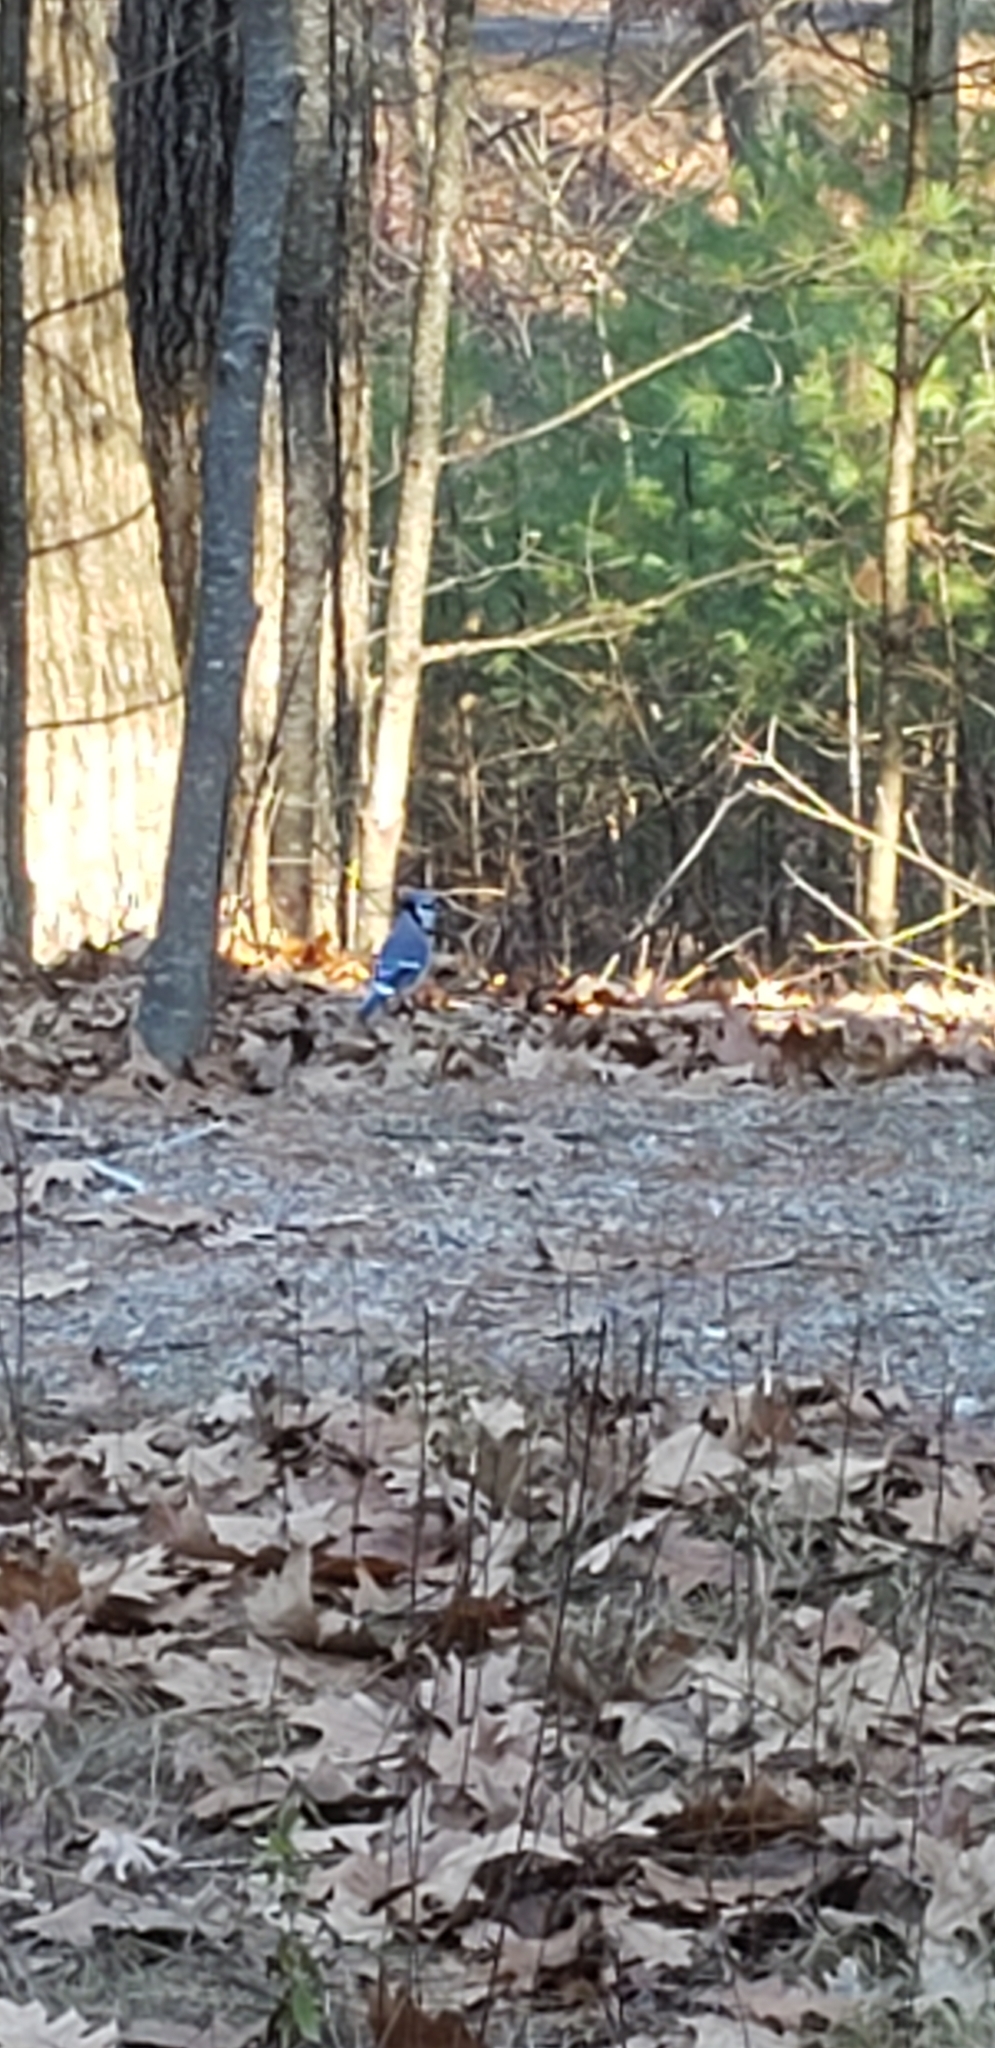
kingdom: Animalia
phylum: Chordata
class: Aves
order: Passeriformes
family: Corvidae
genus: Cyanocitta
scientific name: Cyanocitta cristata
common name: Blue jay
